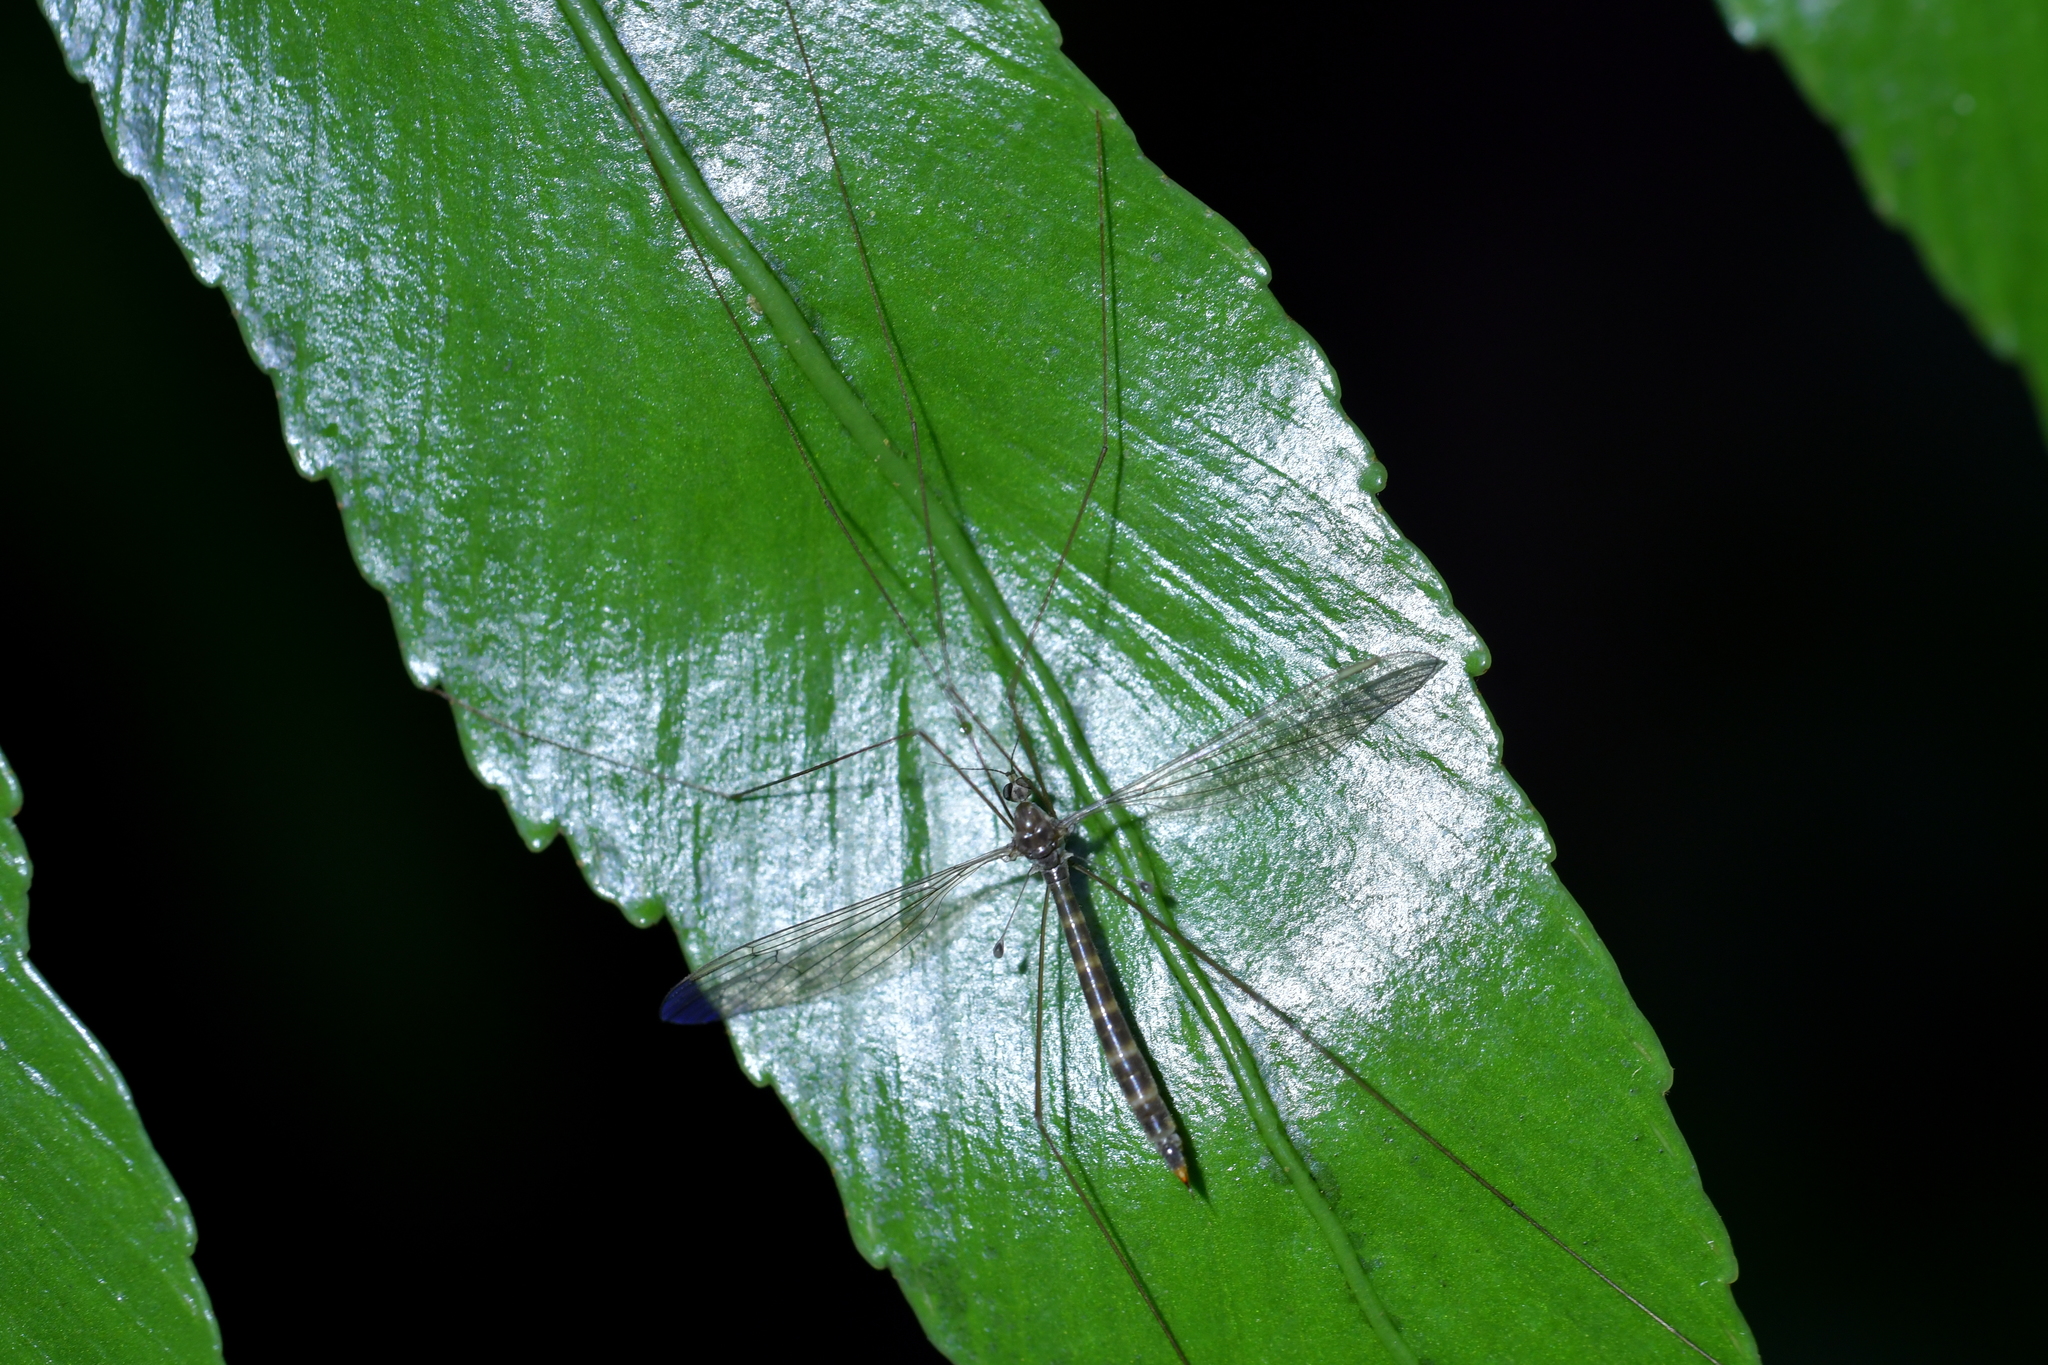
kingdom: Animalia
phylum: Arthropoda
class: Insecta
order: Diptera
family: Limoniidae
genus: Limnophilella
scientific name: Limnophilella delicatula
